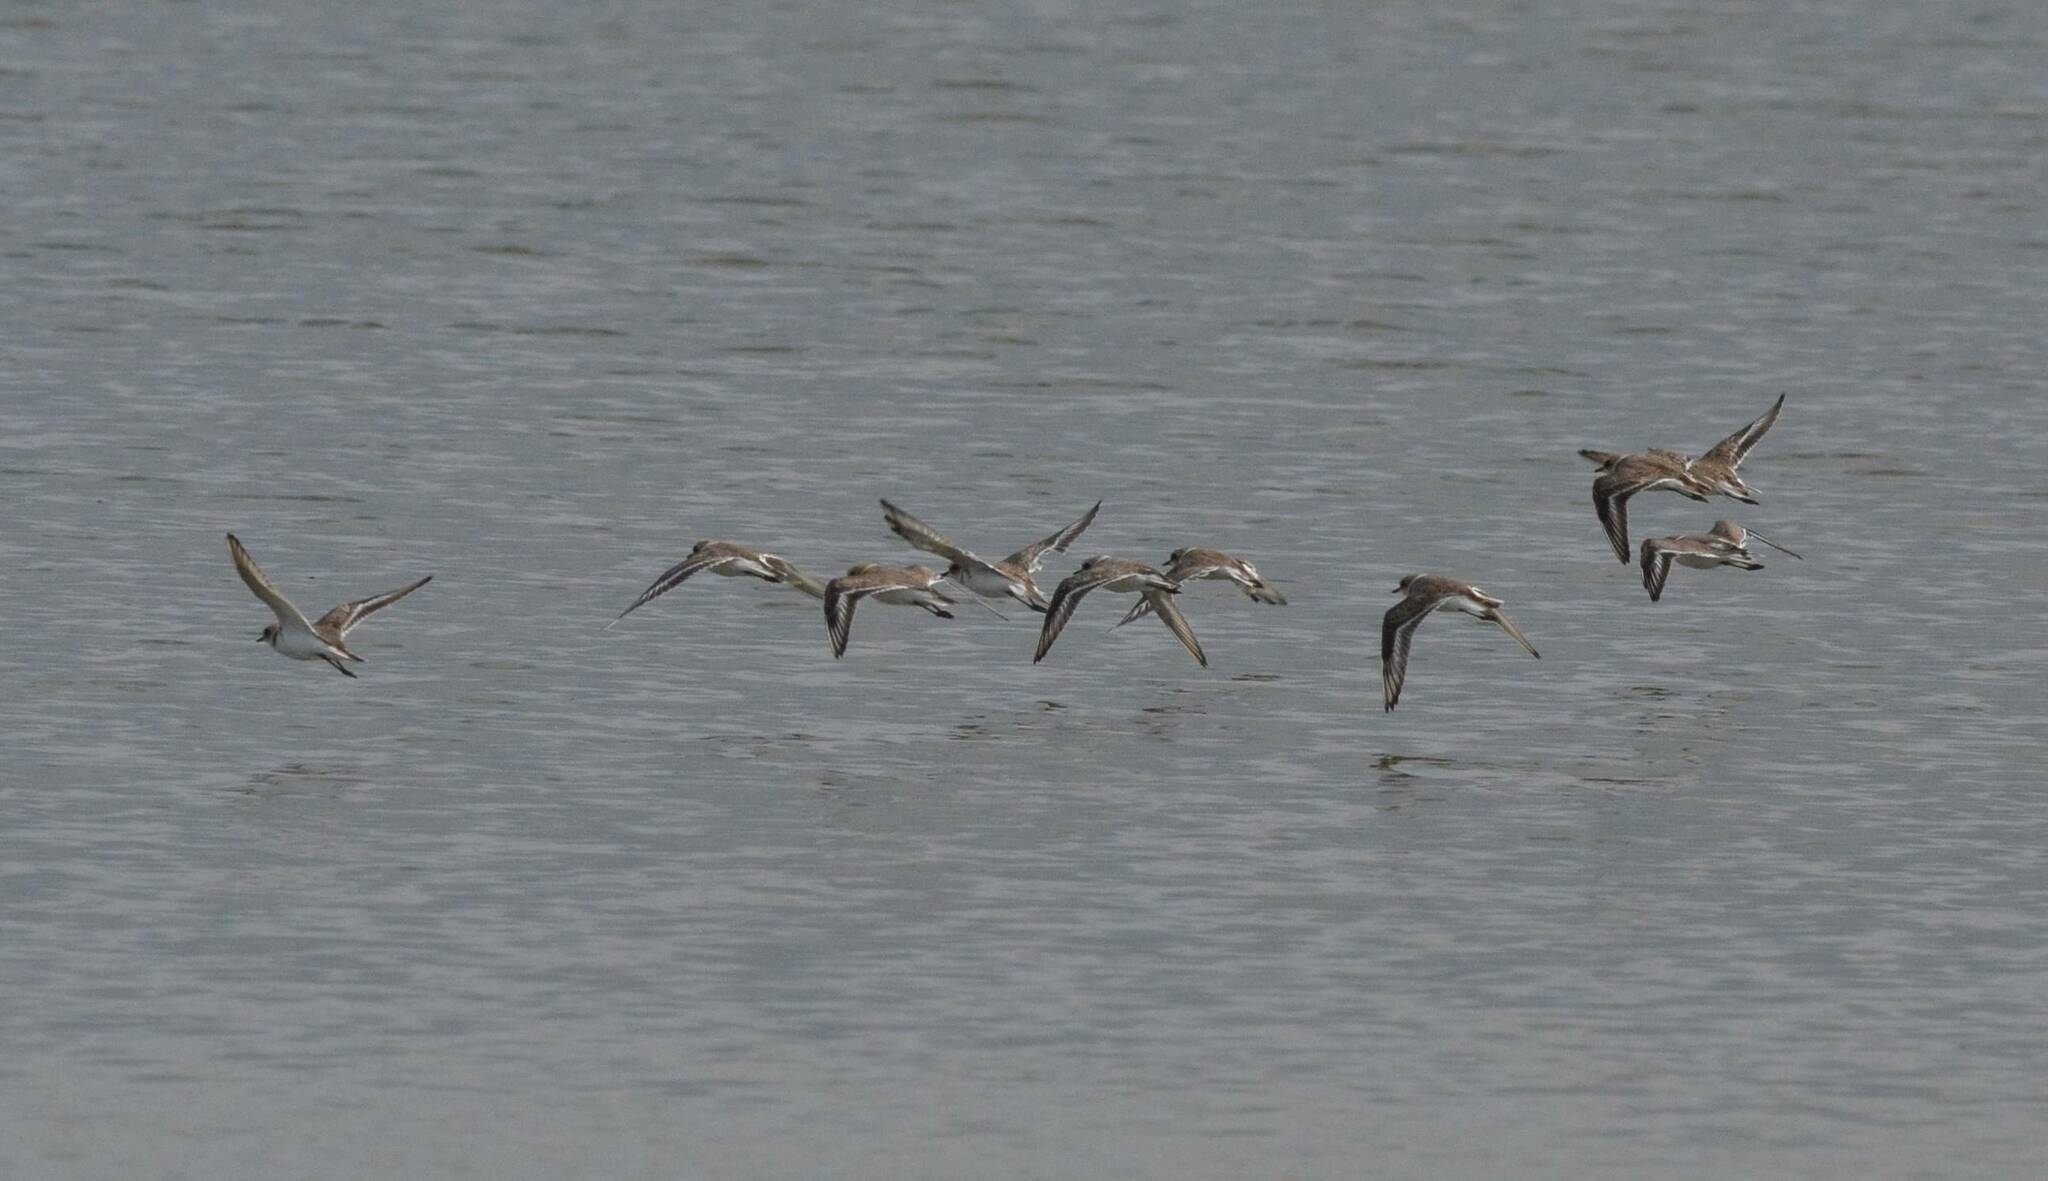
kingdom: Animalia
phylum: Chordata
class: Aves
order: Charadriiformes
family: Charadriidae
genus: Charadrius
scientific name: Charadrius alexandrinus
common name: Kentish plover
